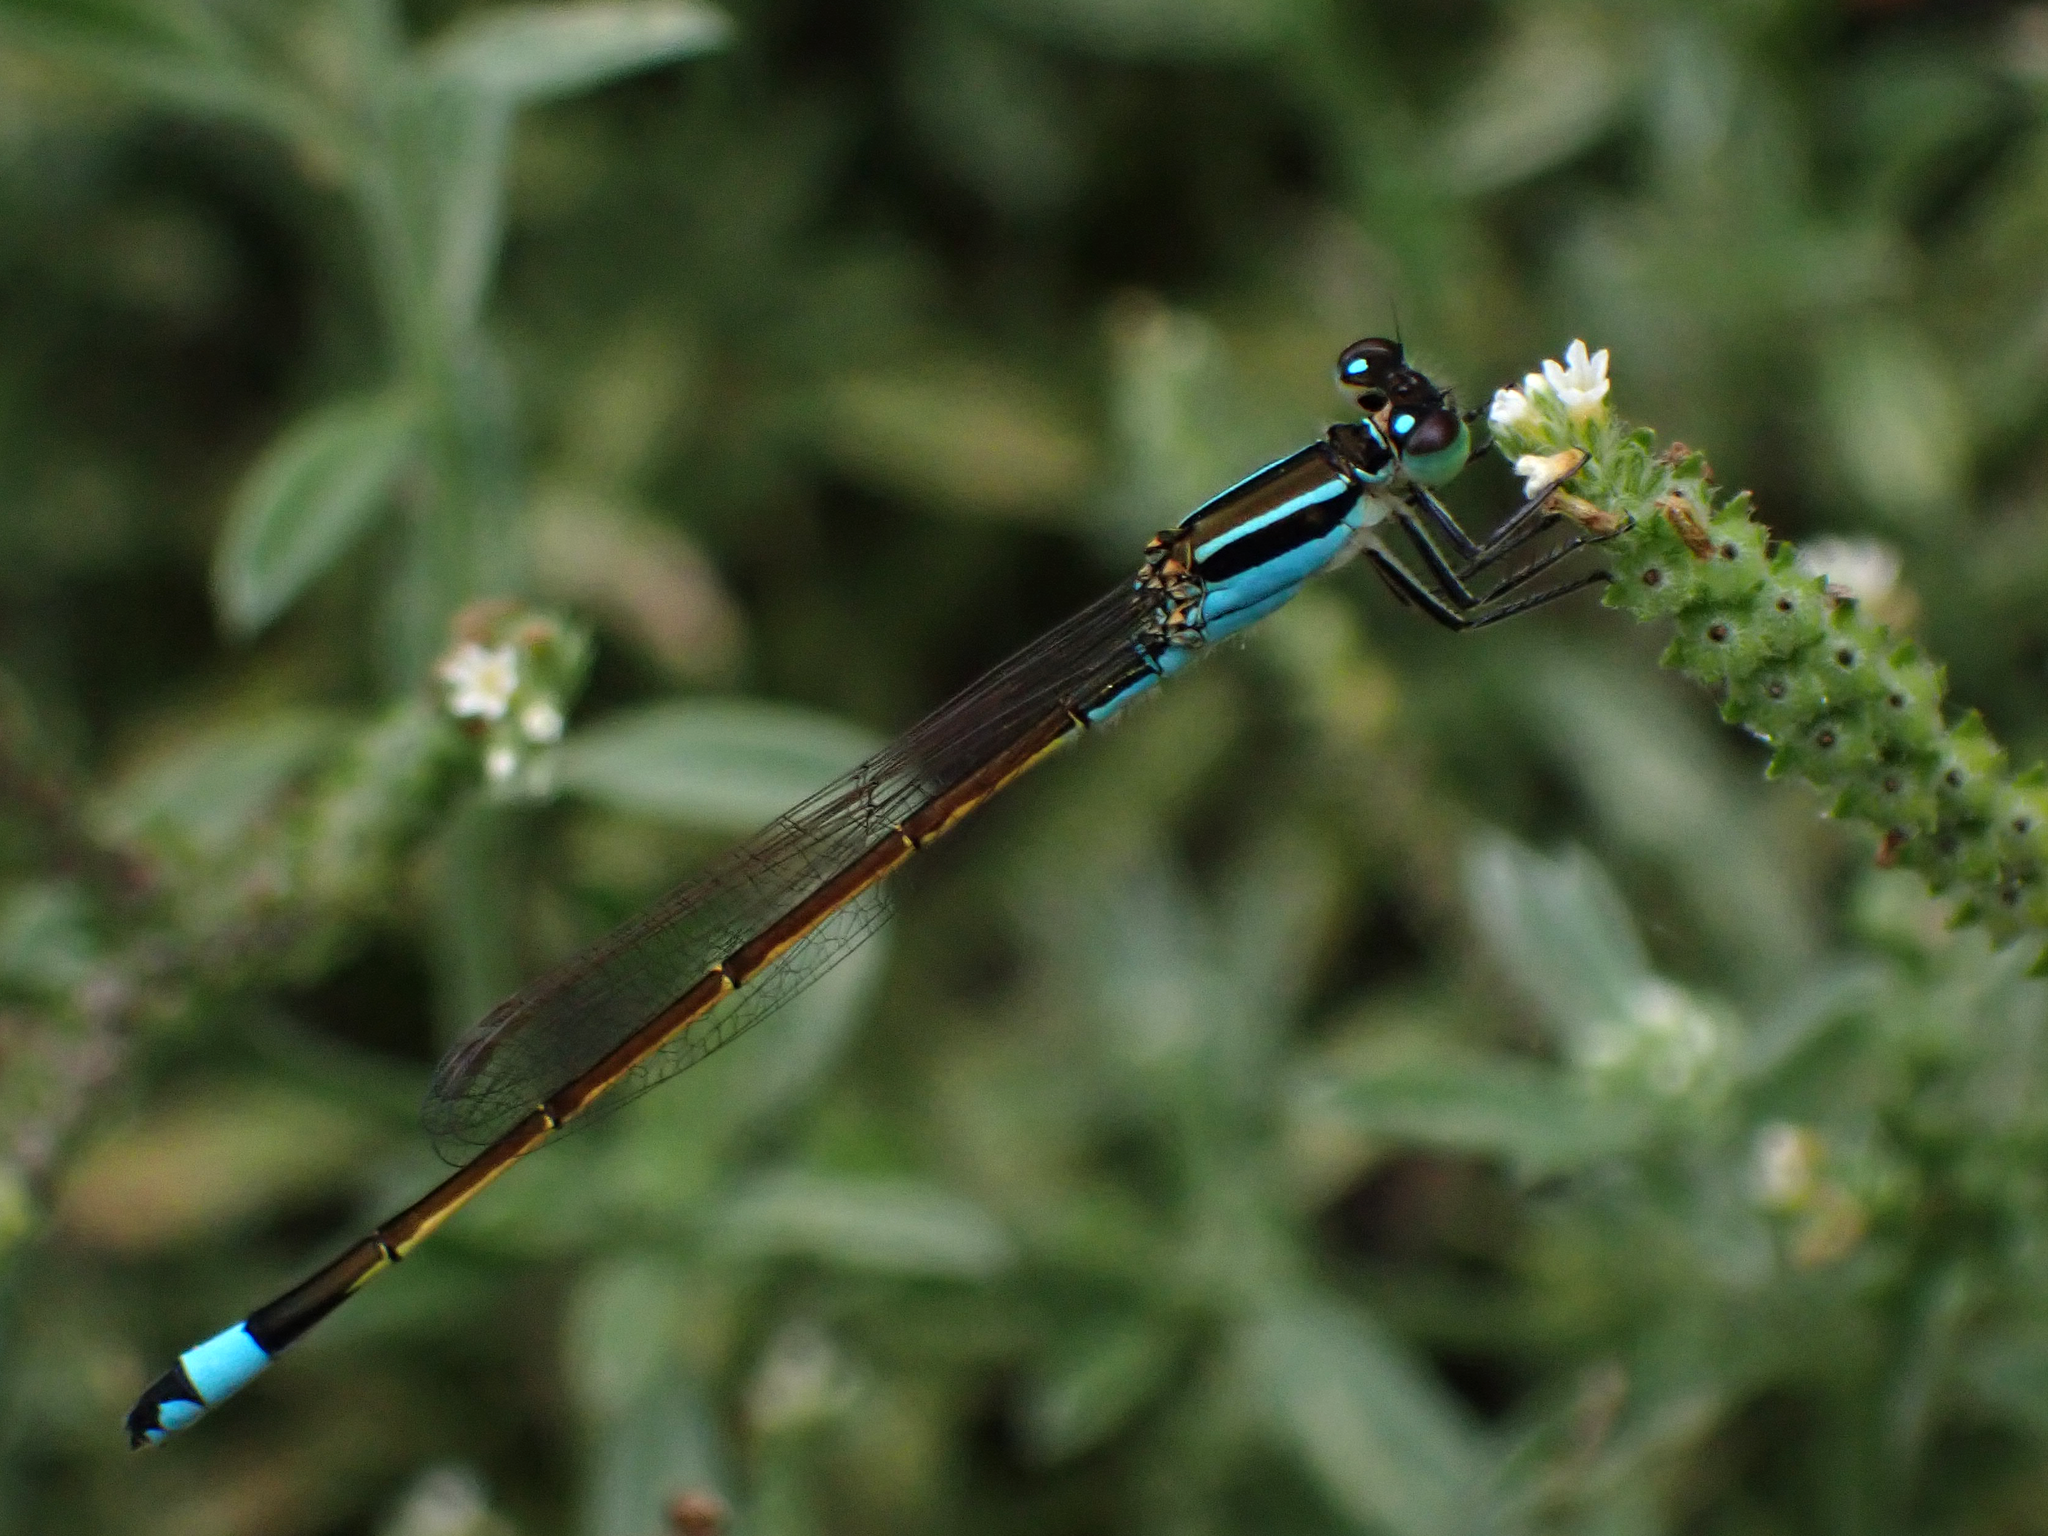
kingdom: Animalia
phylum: Arthropoda
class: Insecta
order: Odonata
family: Coenagrionidae
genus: Ischnura
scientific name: Ischnura ramburii
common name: Rambur's forktail
